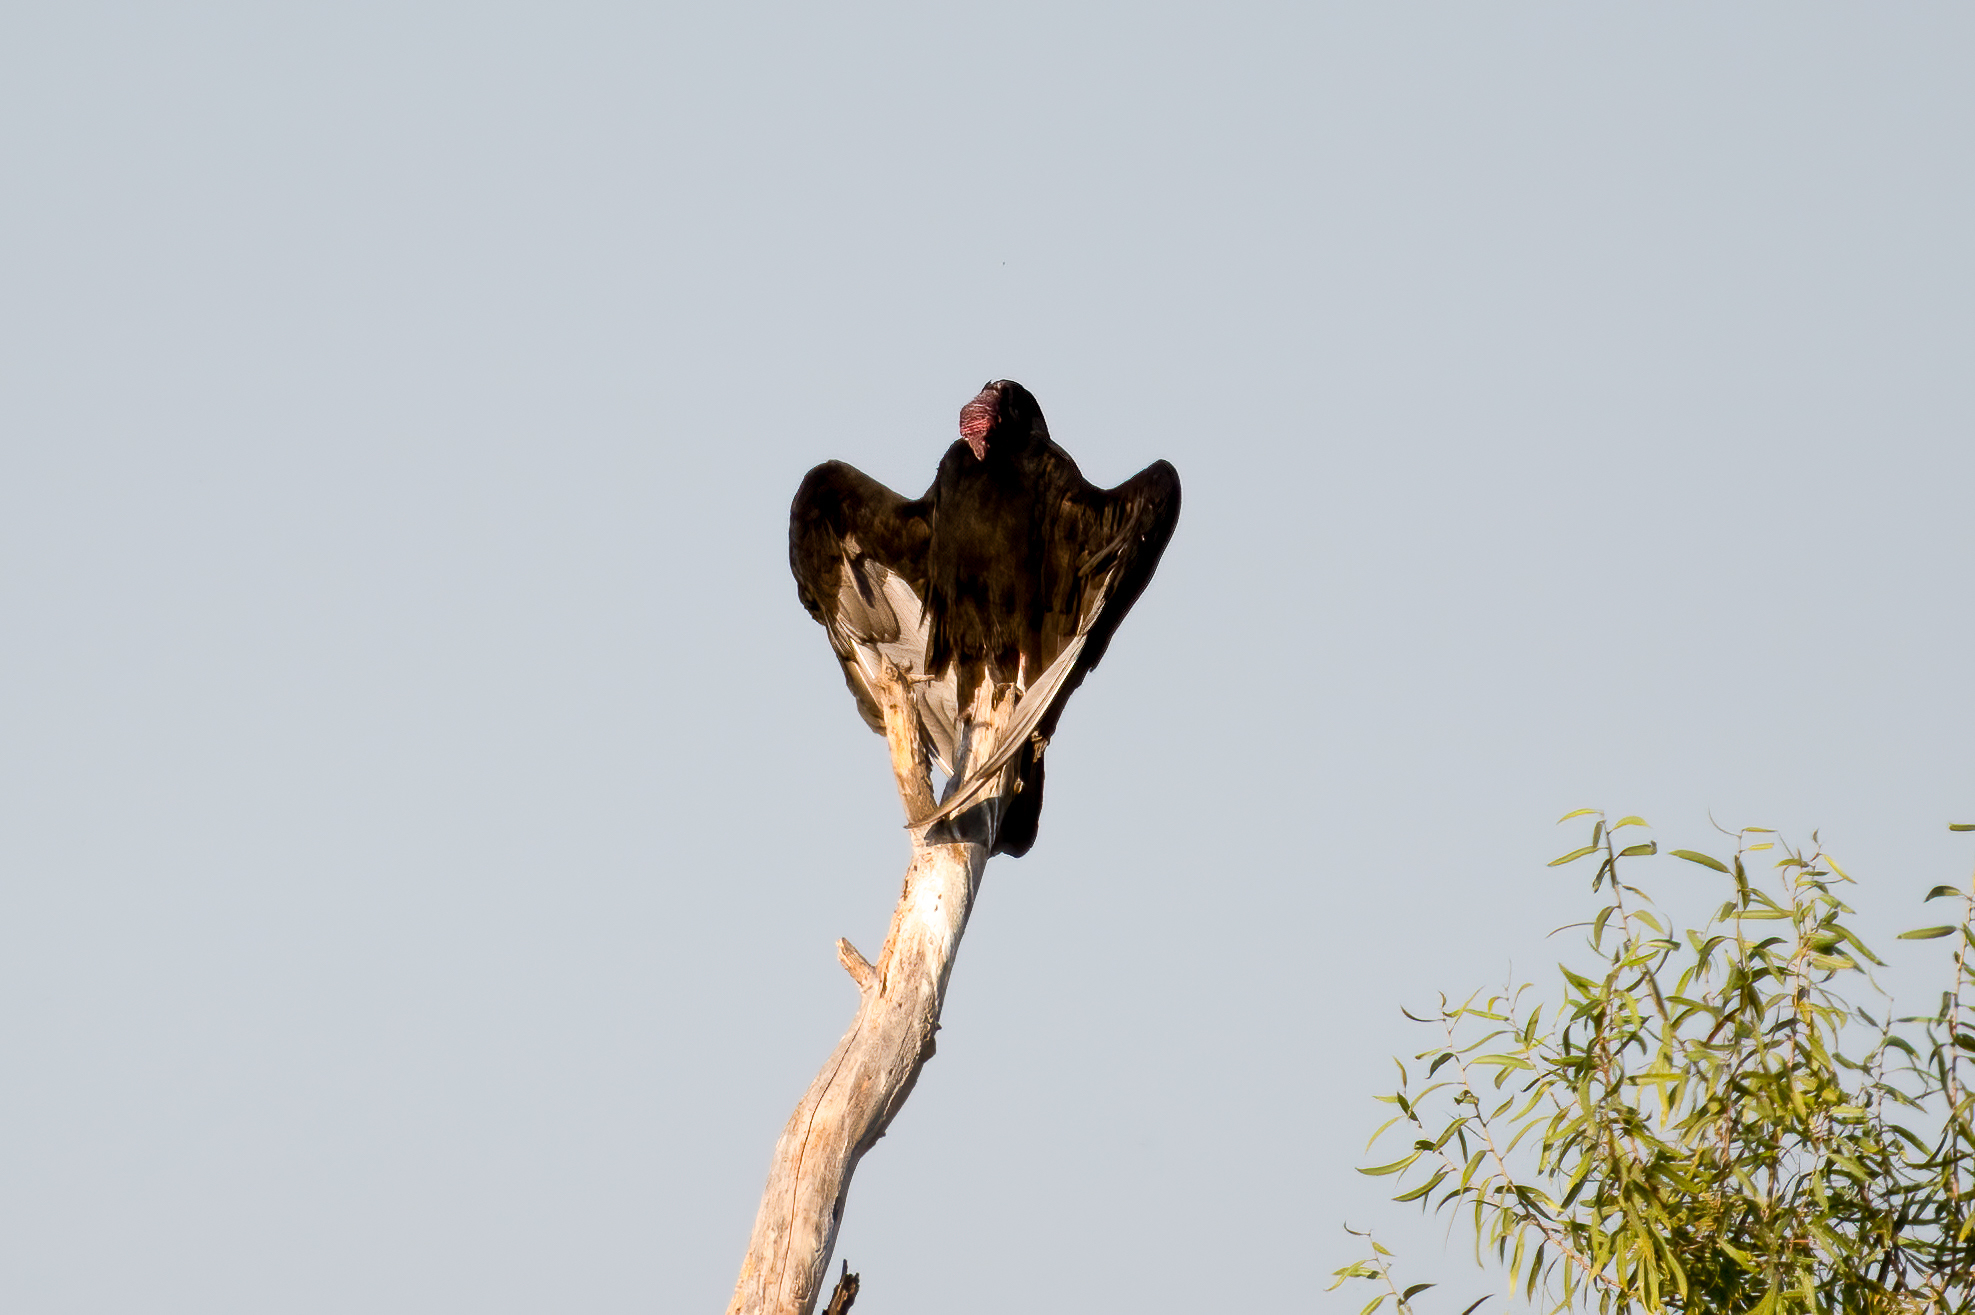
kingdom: Animalia
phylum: Chordata
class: Aves
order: Accipitriformes
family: Cathartidae
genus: Cathartes
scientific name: Cathartes aura
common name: Turkey vulture
